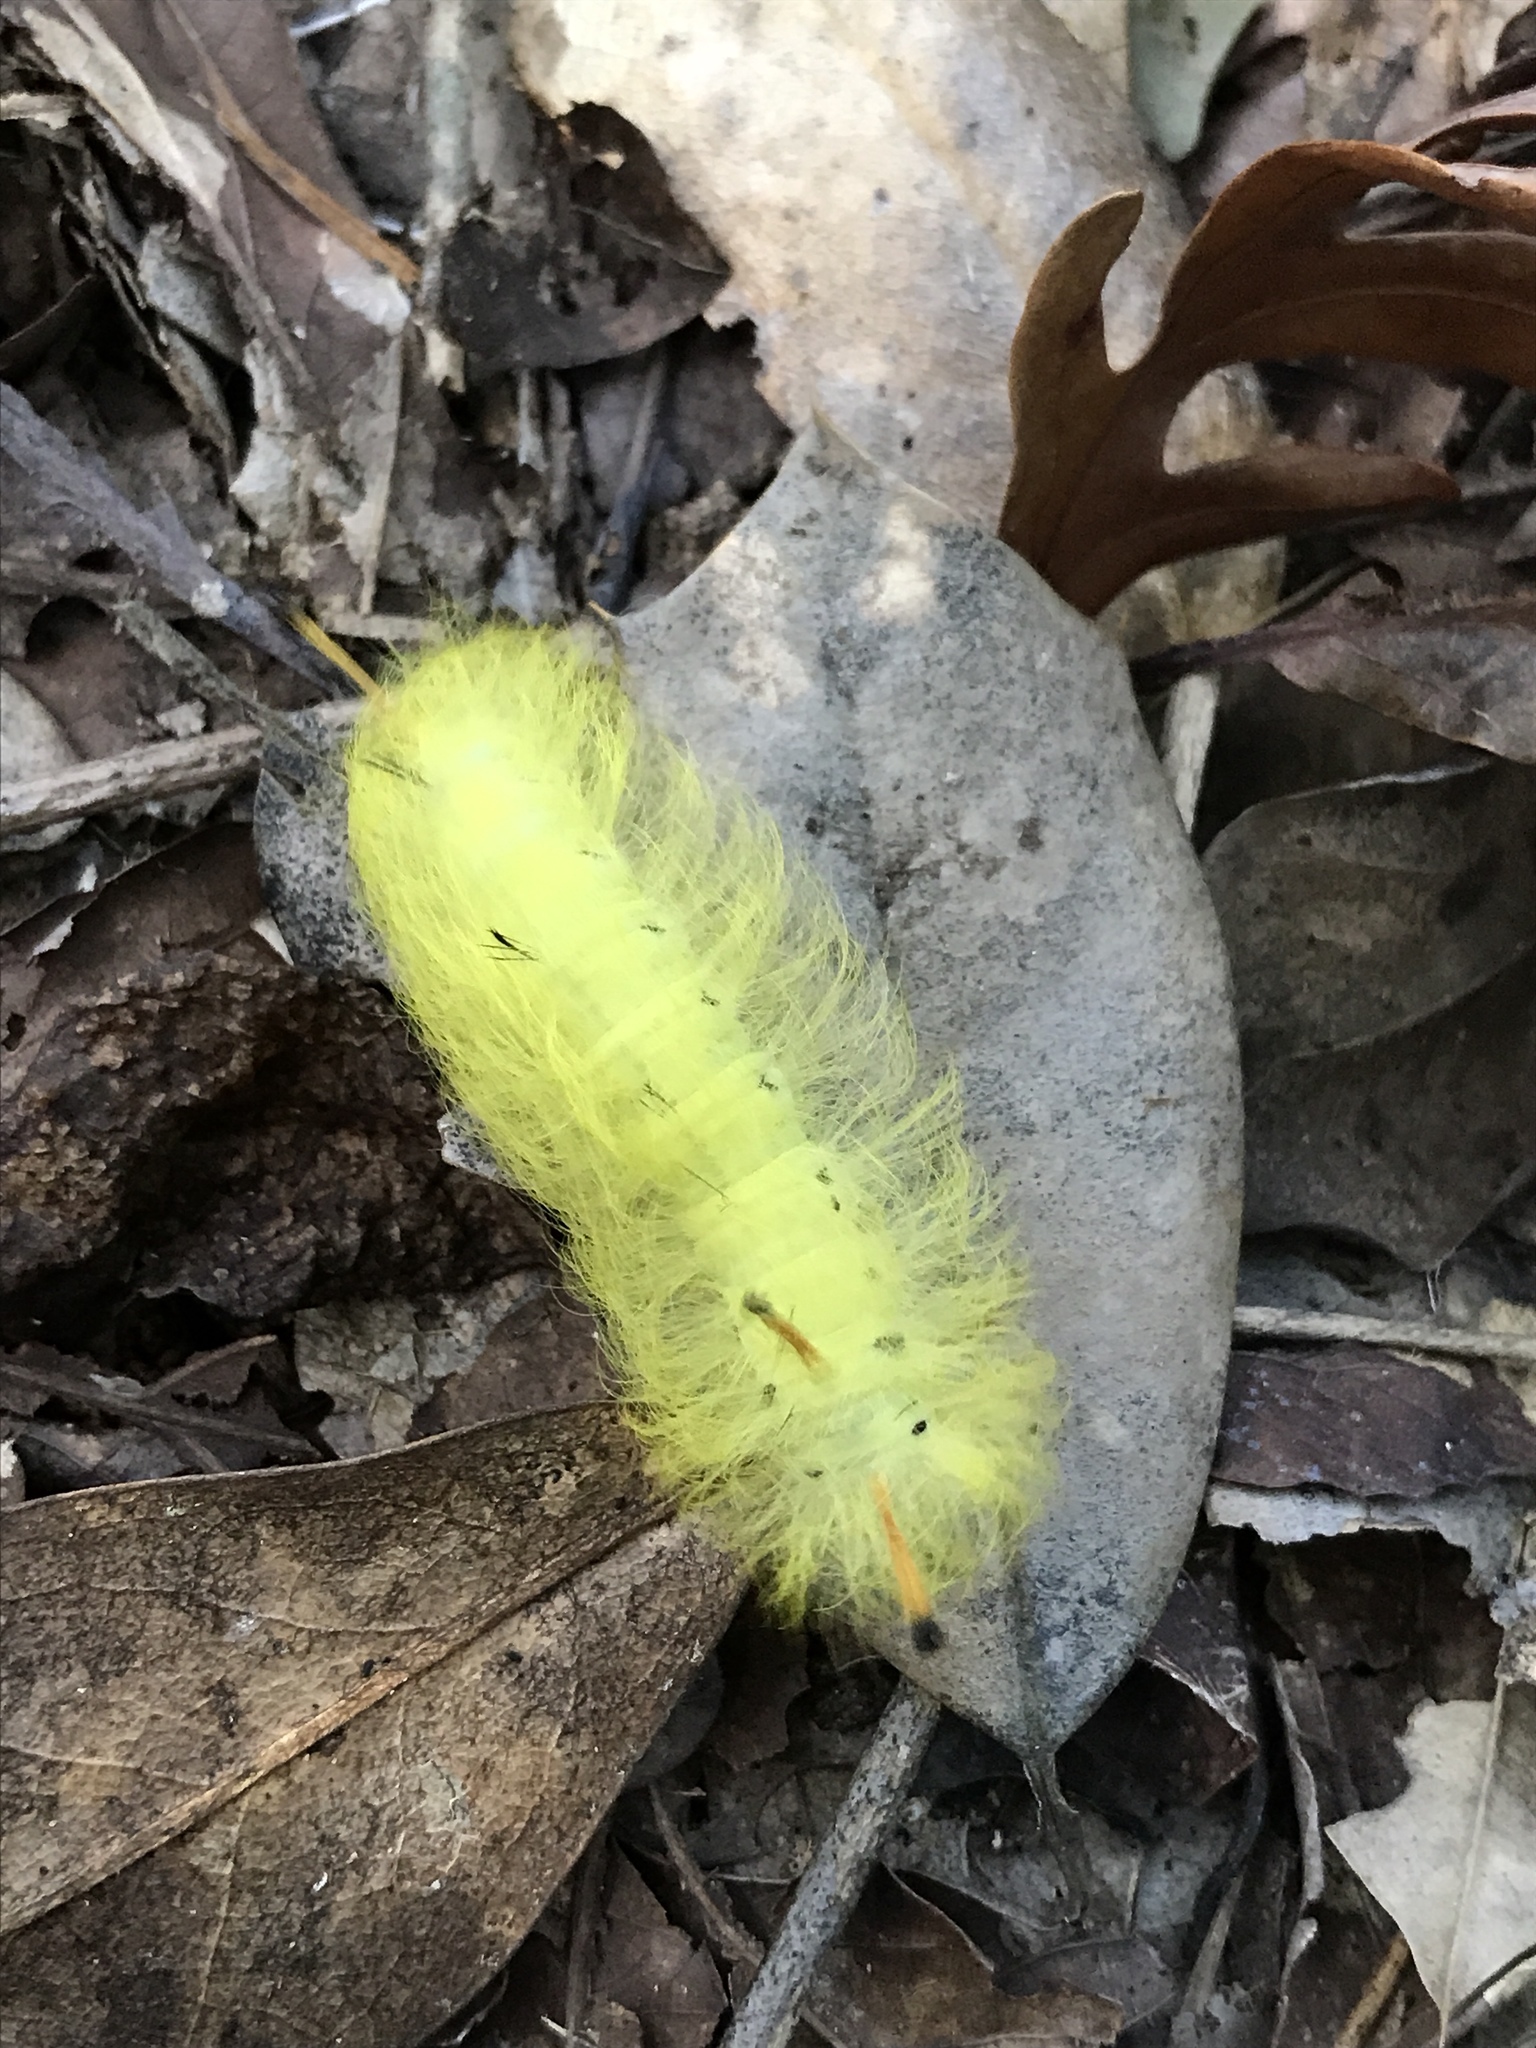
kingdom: Animalia
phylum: Arthropoda
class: Insecta
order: Lepidoptera
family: Apatelodidae
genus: Hygrochroa
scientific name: Hygrochroa Apatelodes torrefacta
